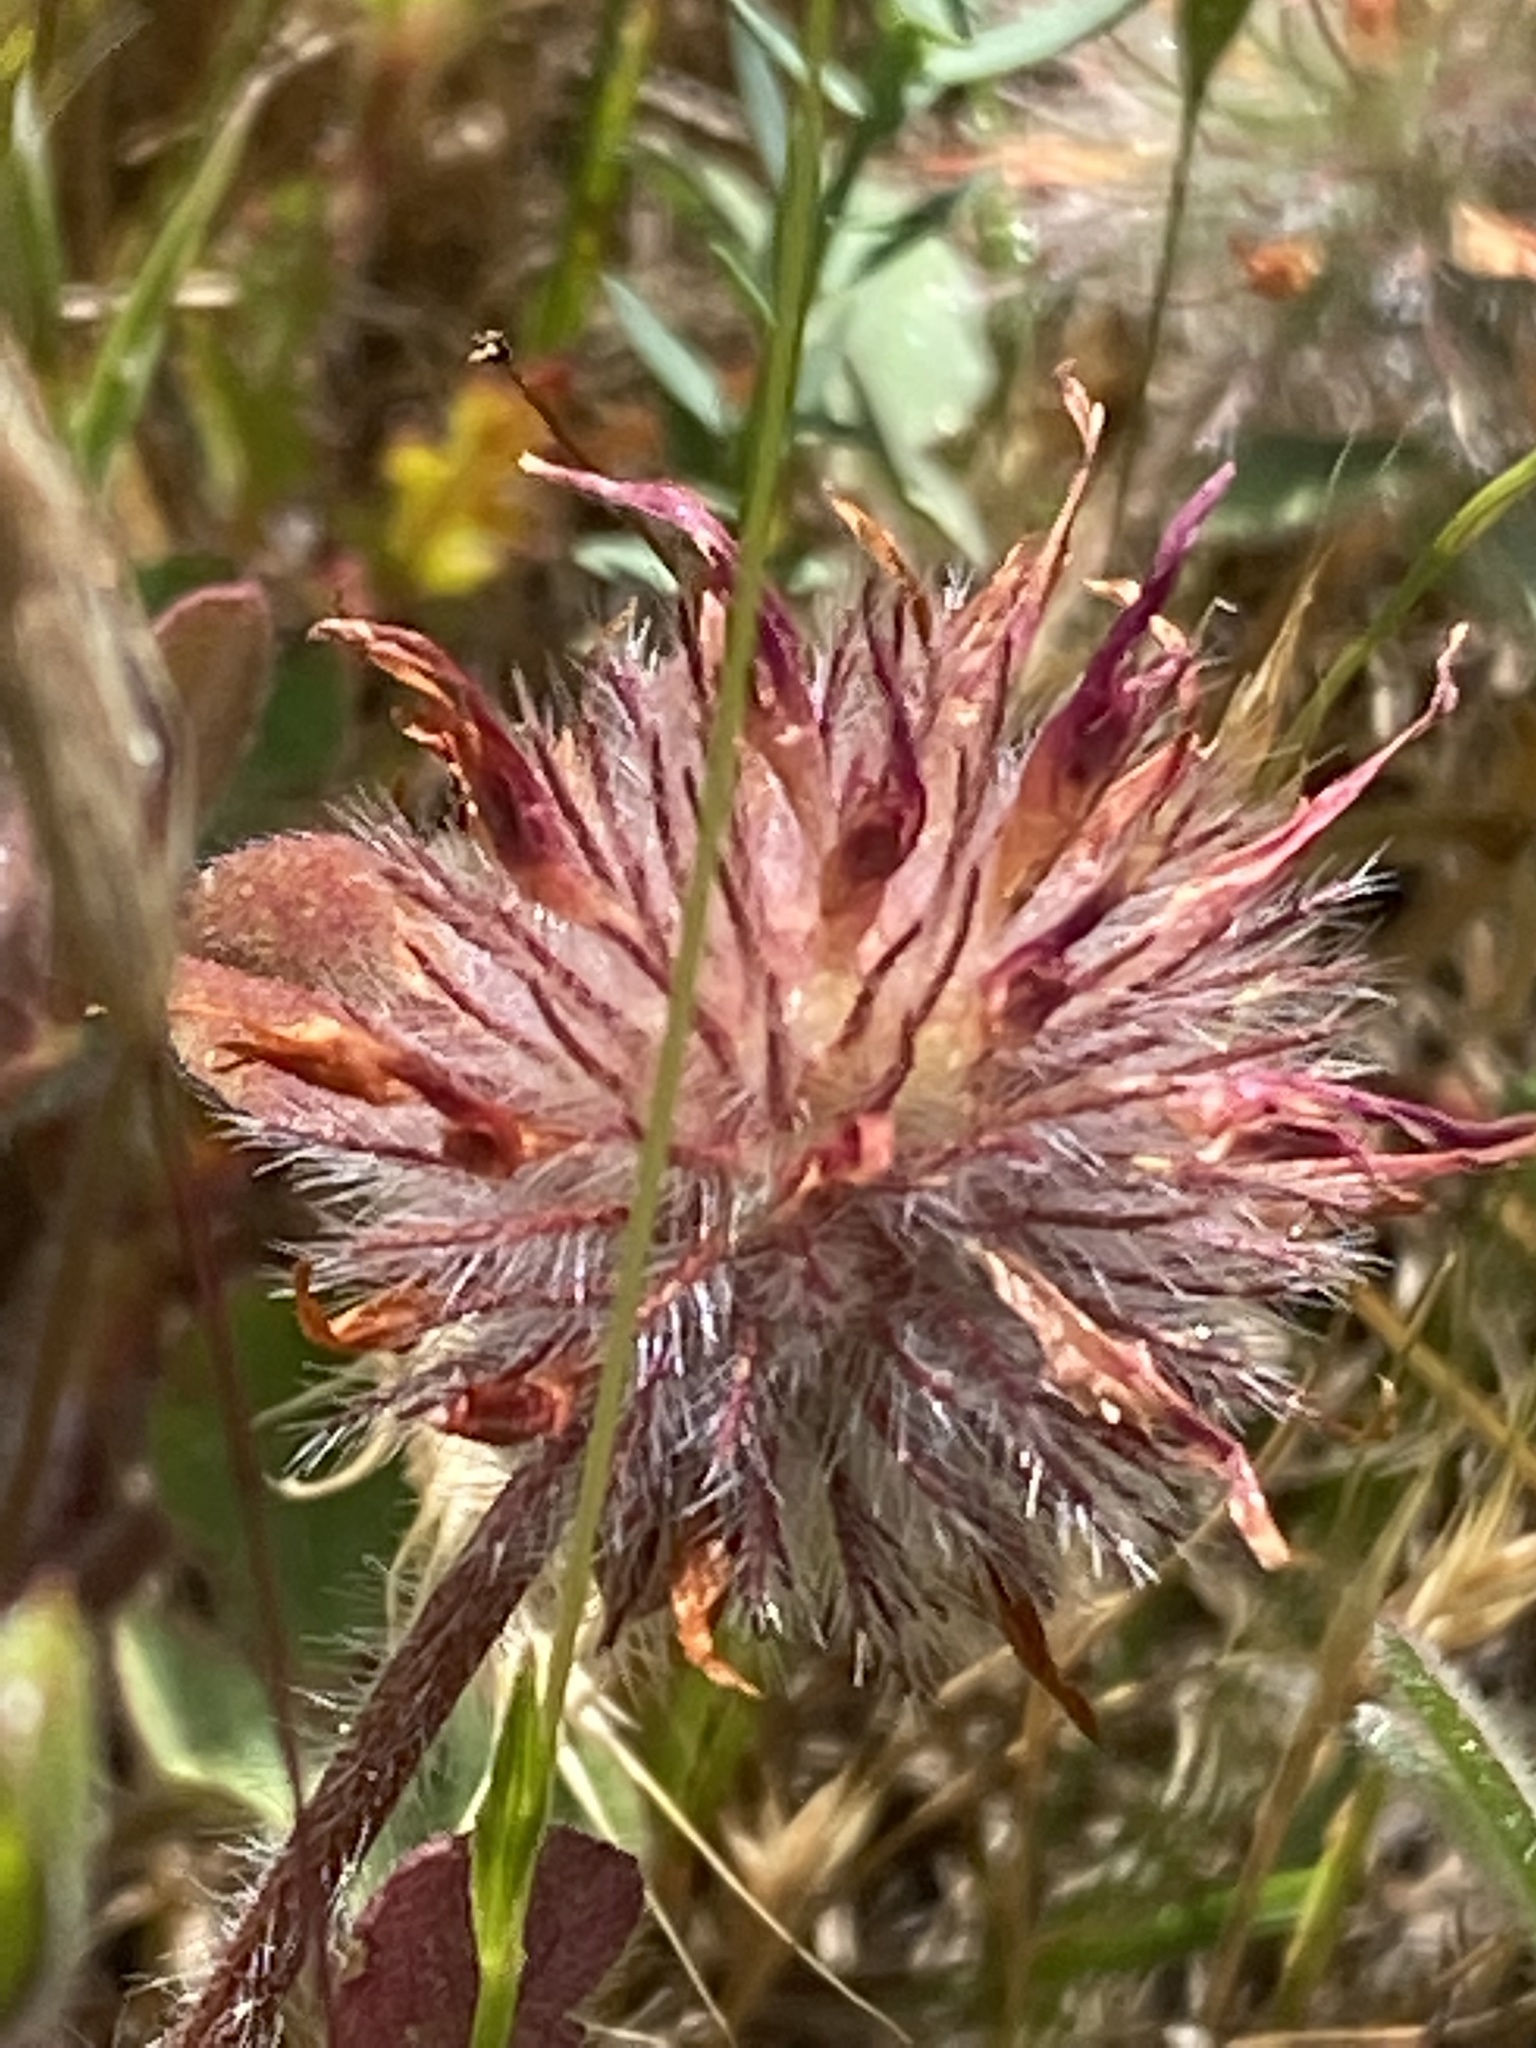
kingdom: Plantae
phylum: Tracheophyta
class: Magnoliopsida
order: Fabales
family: Fabaceae
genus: Trifolium
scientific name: Trifolium hirtum
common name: Rose clover
